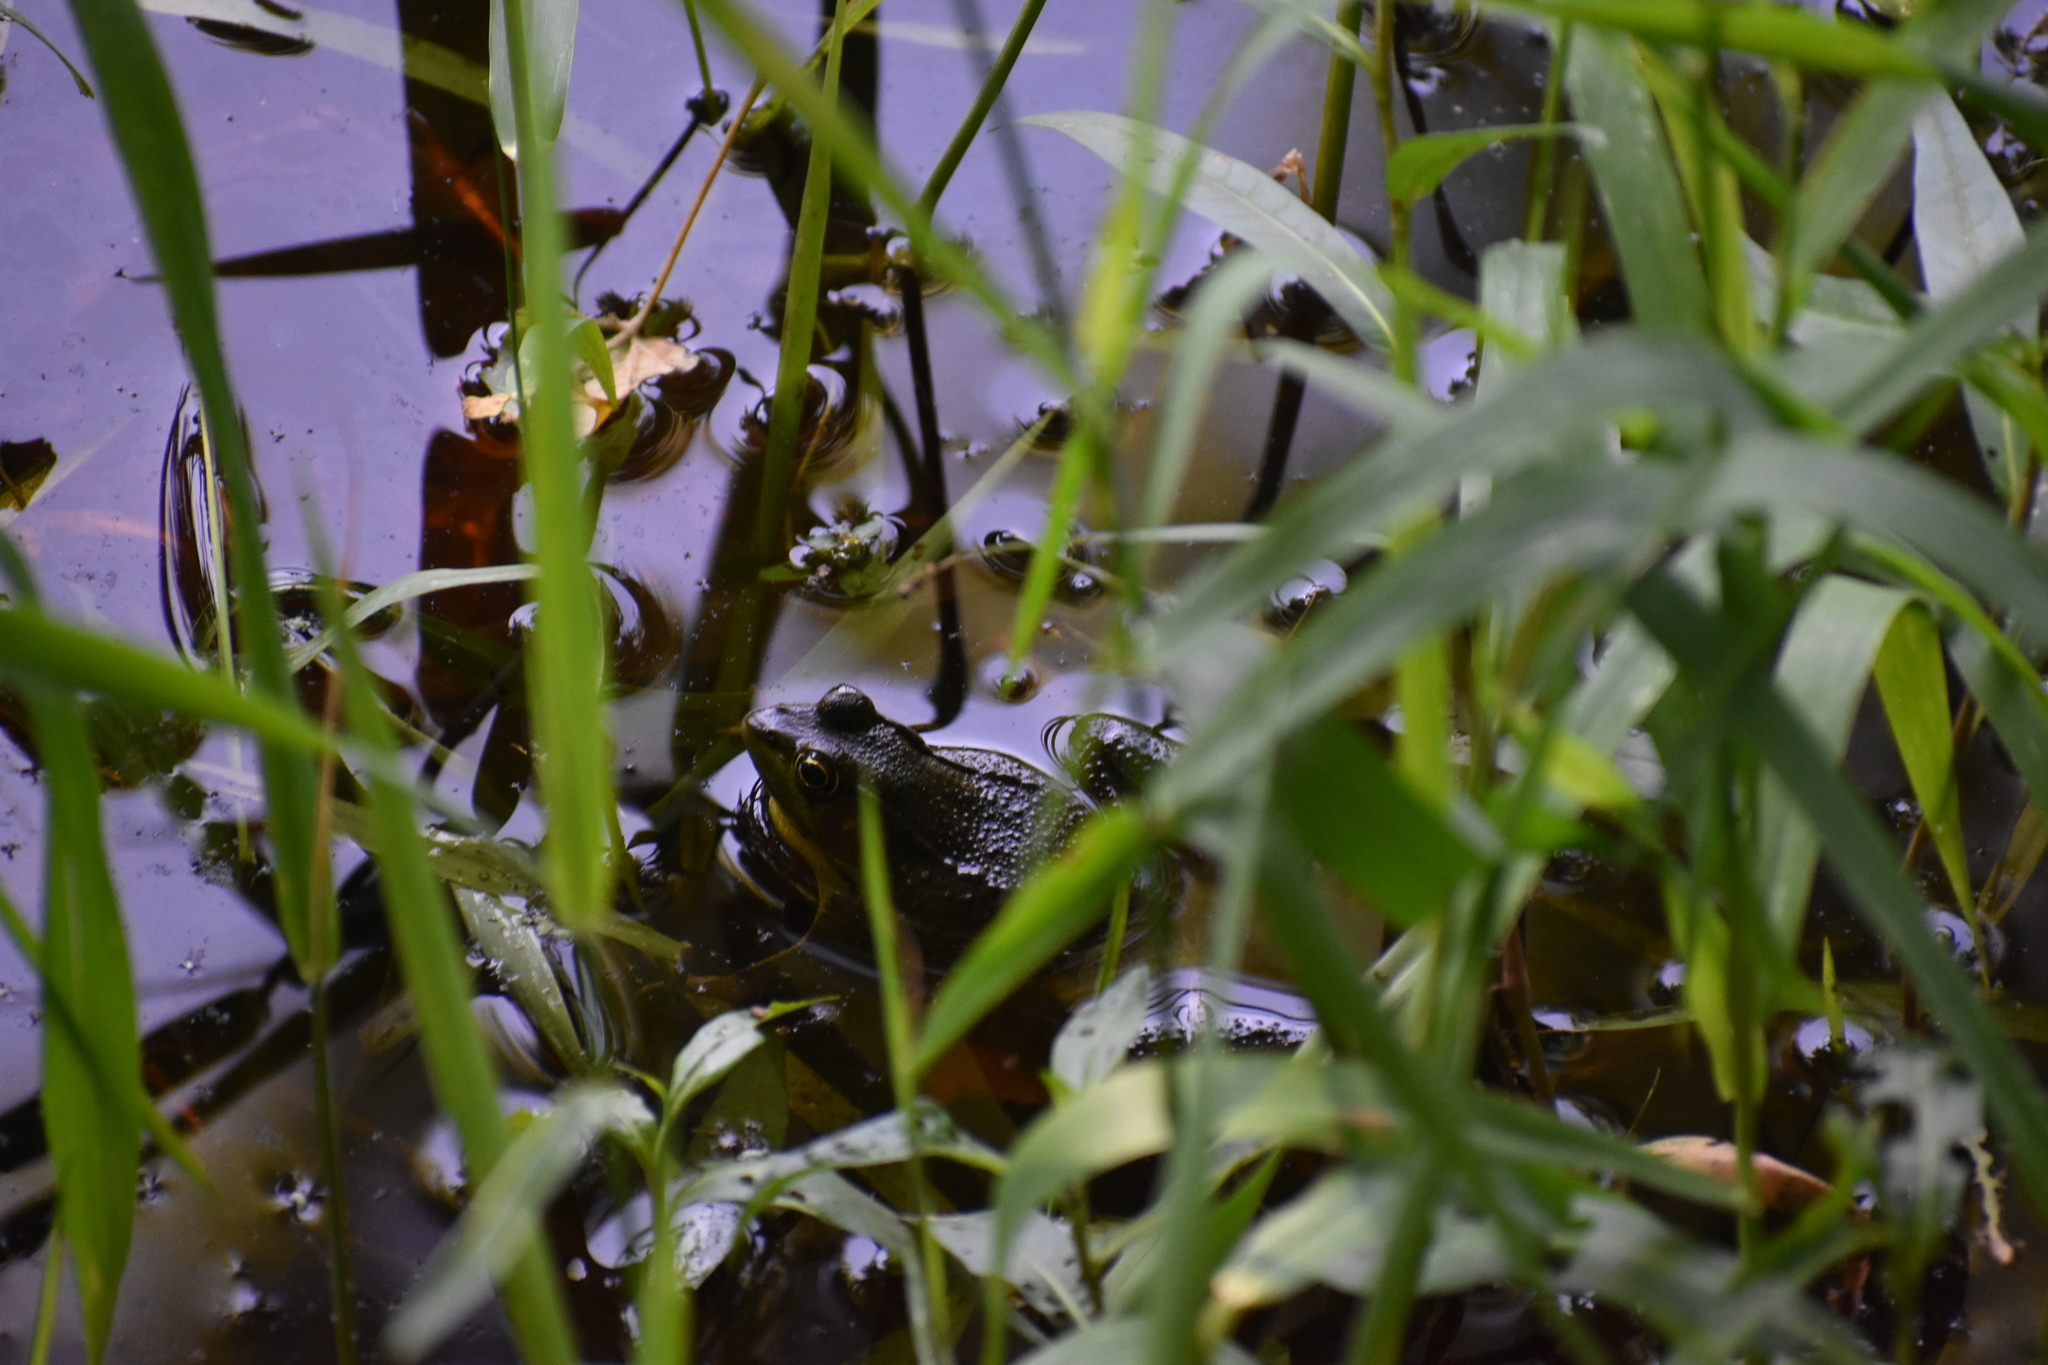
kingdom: Animalia
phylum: Chordata
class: Amphibia
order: Anura
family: Ranidae
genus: Lithobates
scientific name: Lithobates clamitans
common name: Green frog
